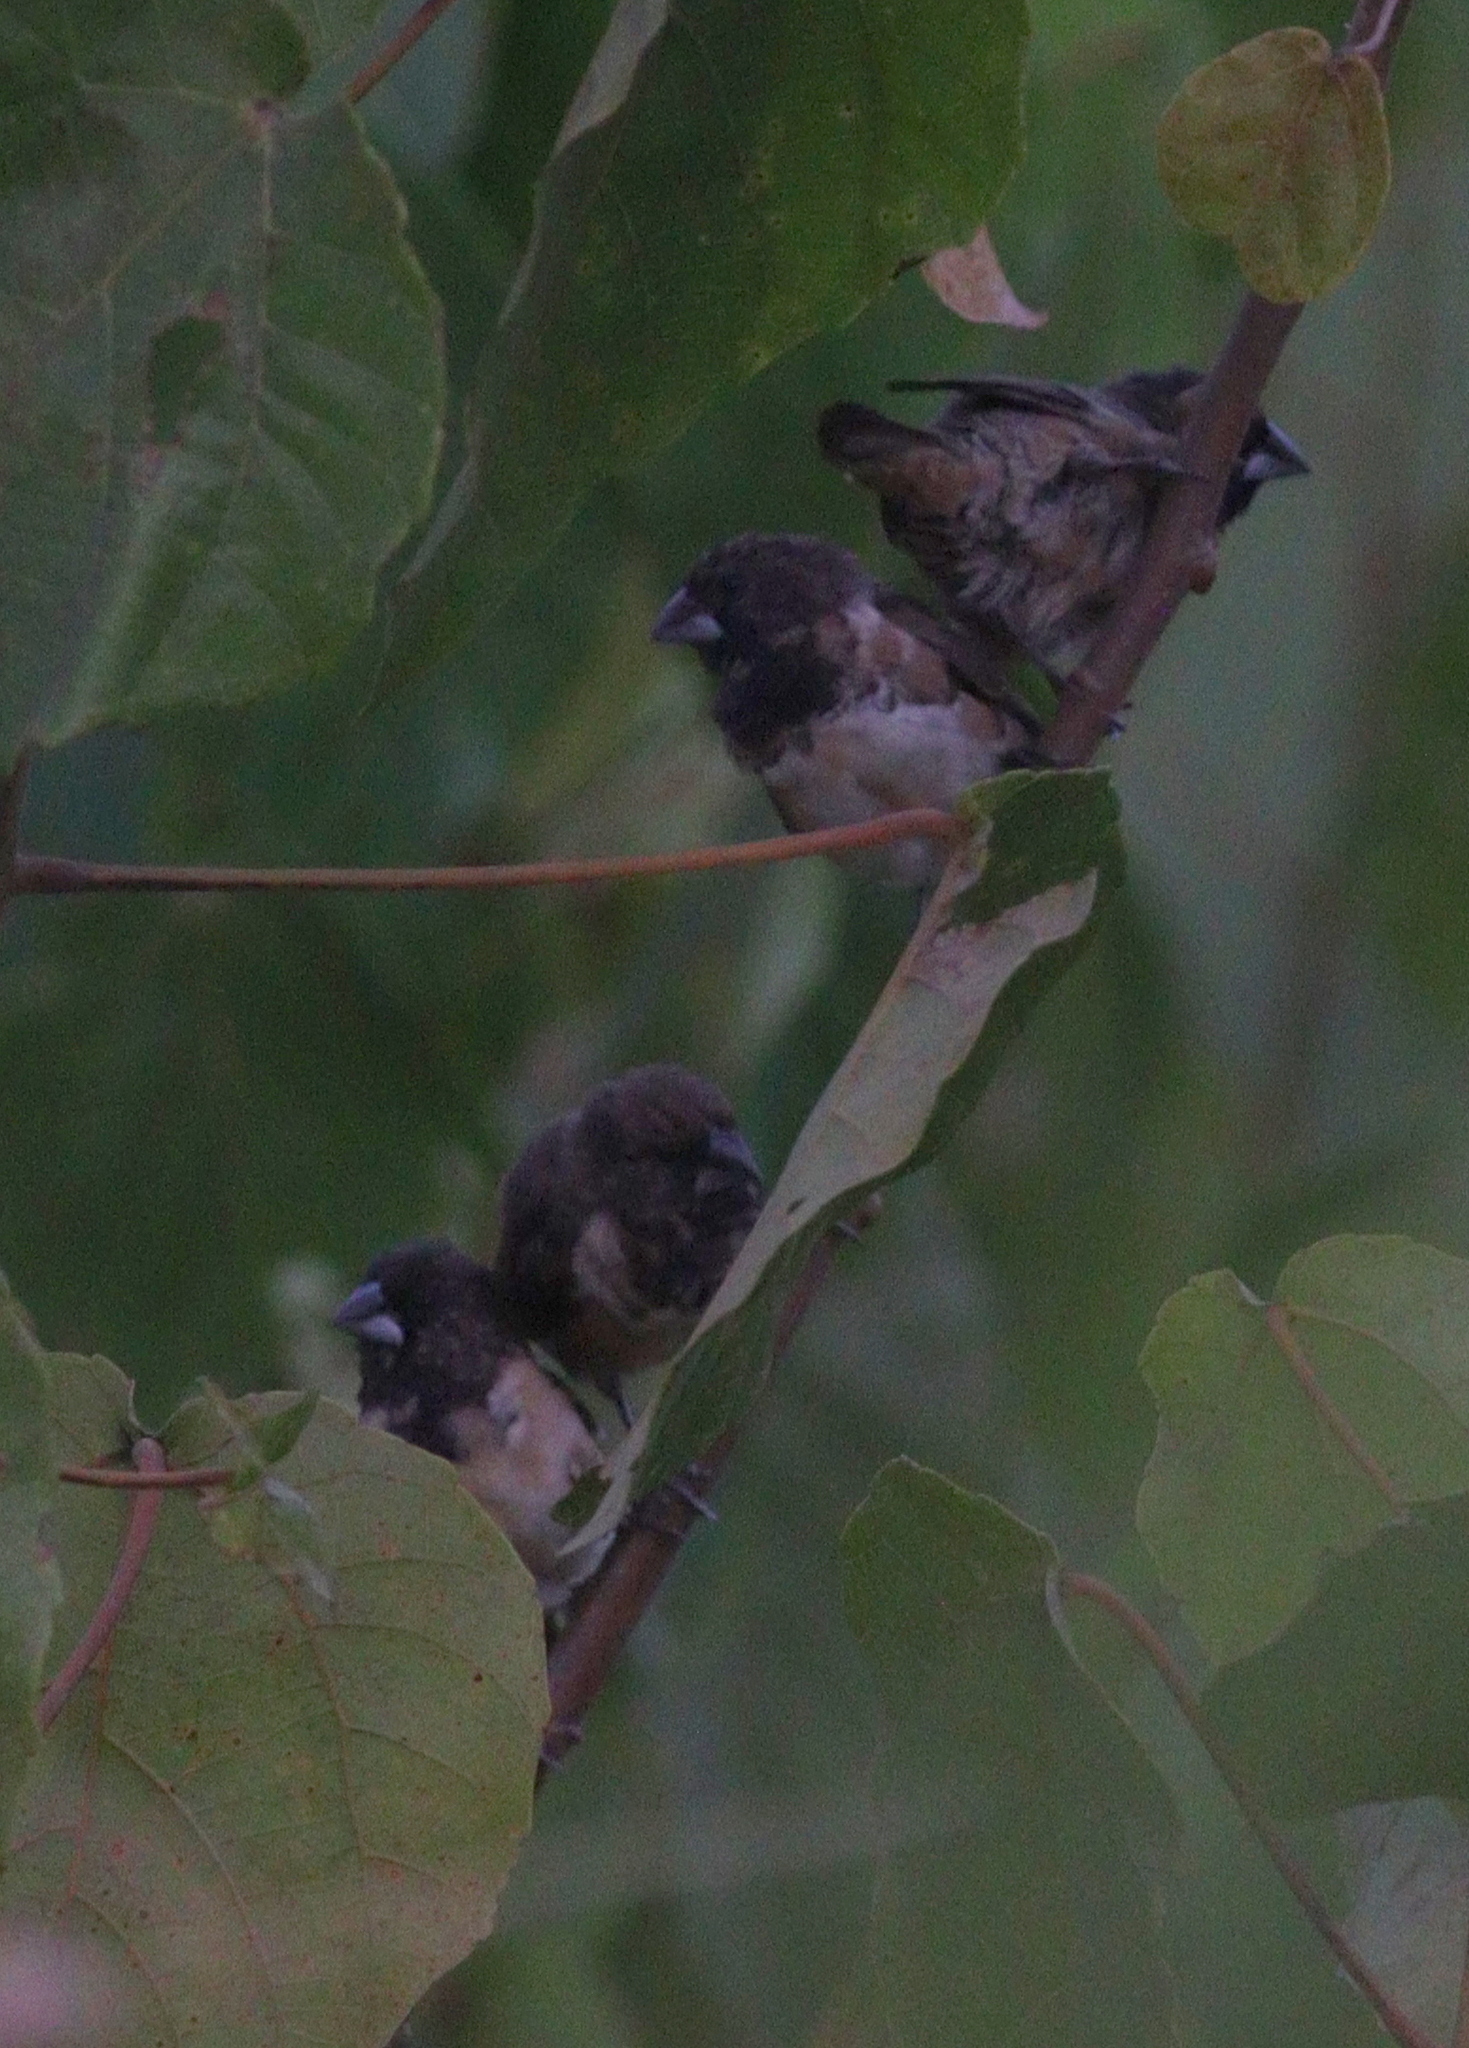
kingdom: Animalia
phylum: Chordata
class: Aves
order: Passeriformes
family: Estrildidae
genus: Lonchura
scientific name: Lonchura cucullata
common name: Bronze mannikin
